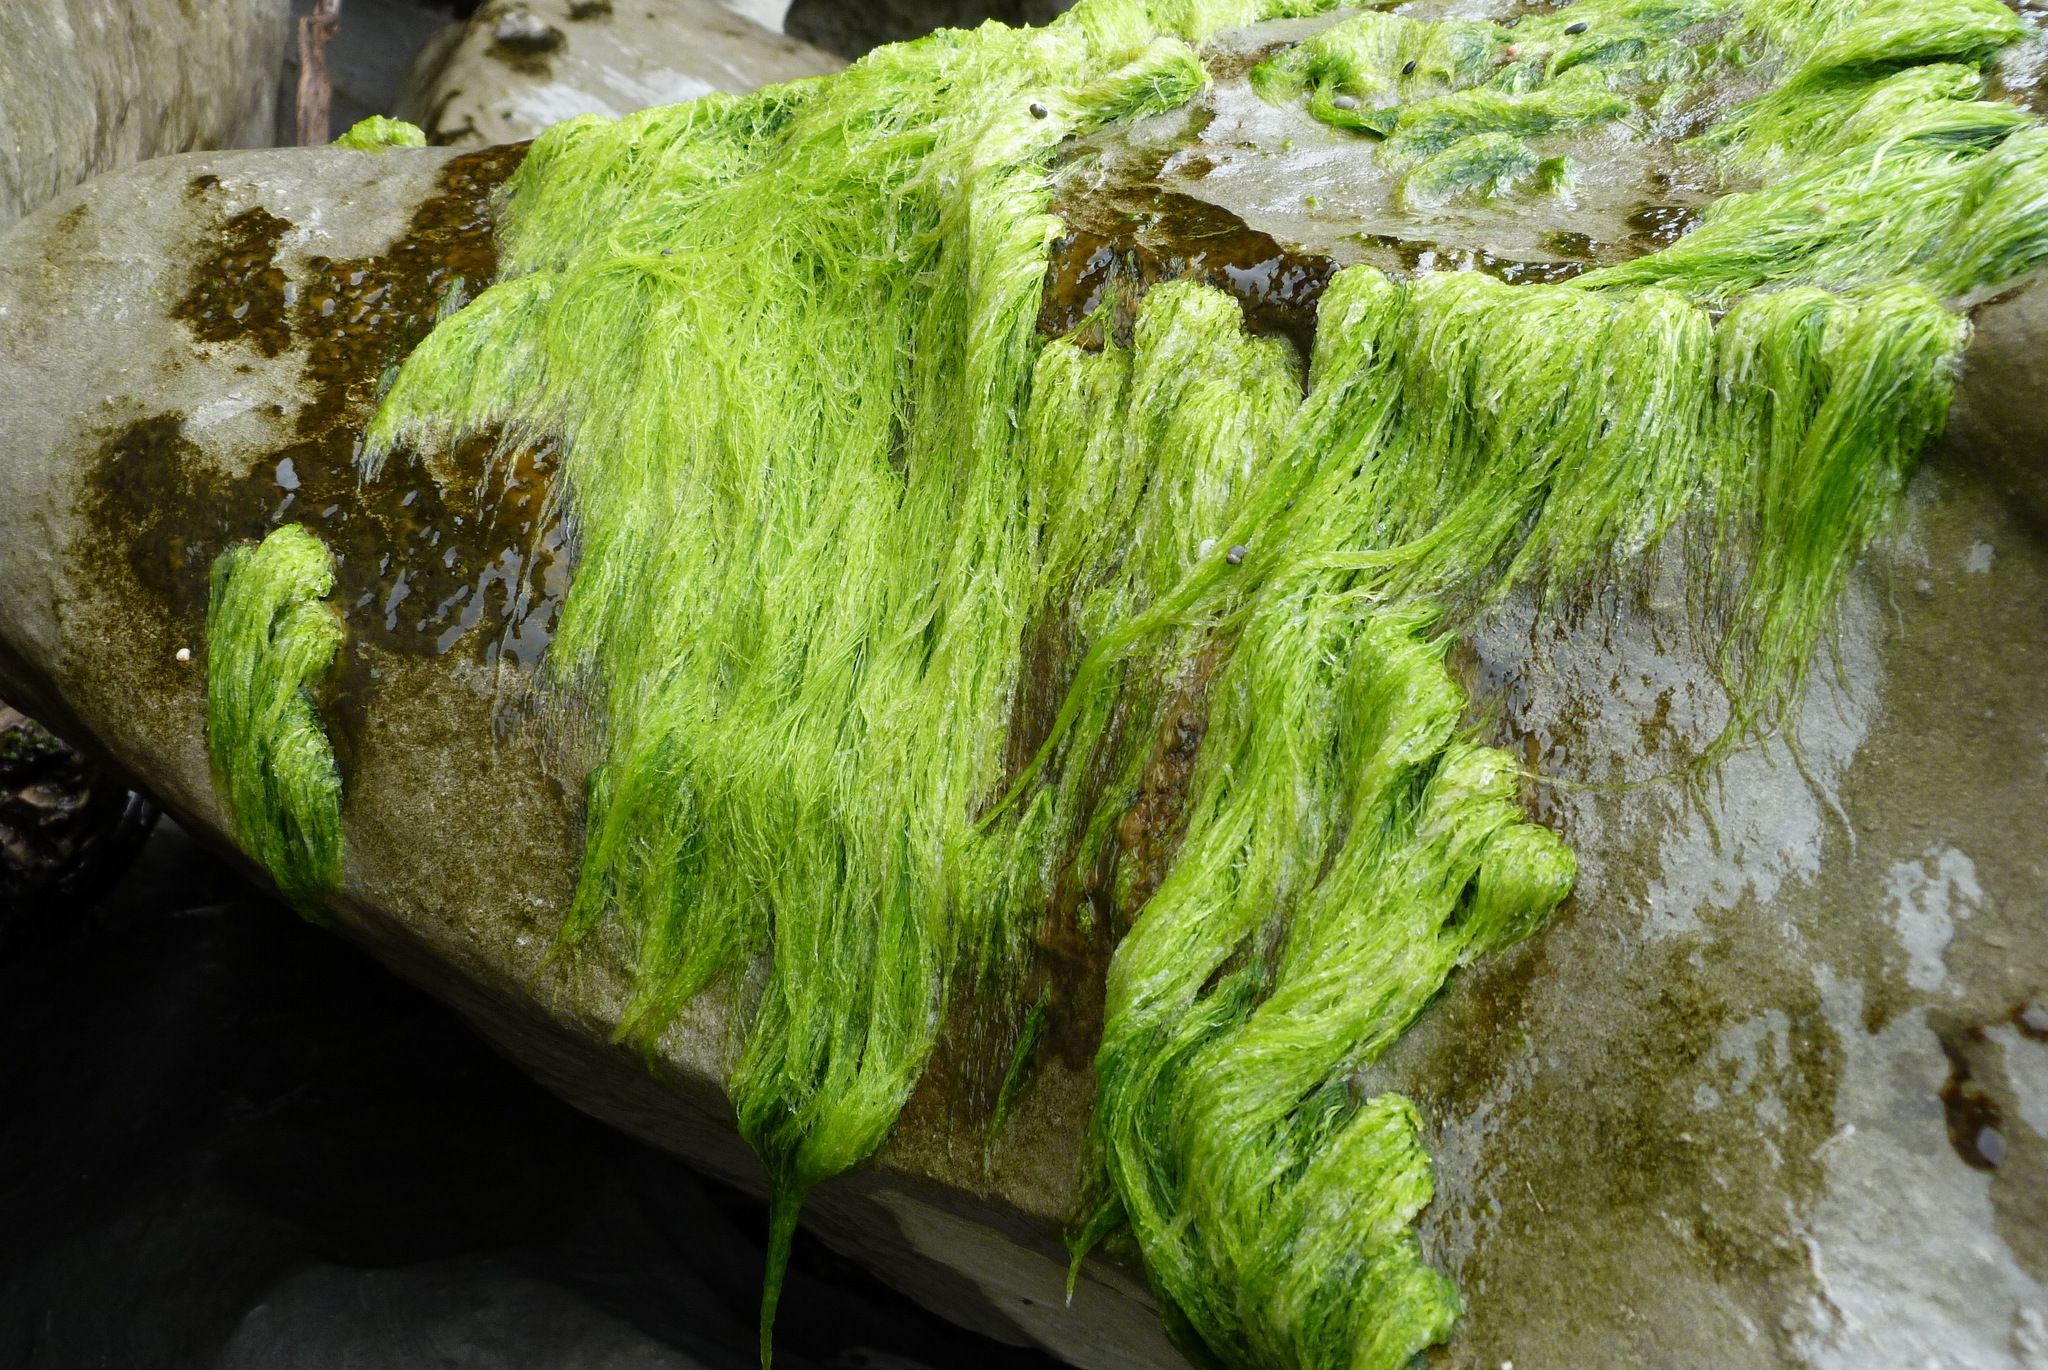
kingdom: Plantae
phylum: Chlorophyta
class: Ulvophyceae
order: Ulvales
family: Ulvaceae
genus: Ulva
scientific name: Ulva intestinalis
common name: Gut weed
